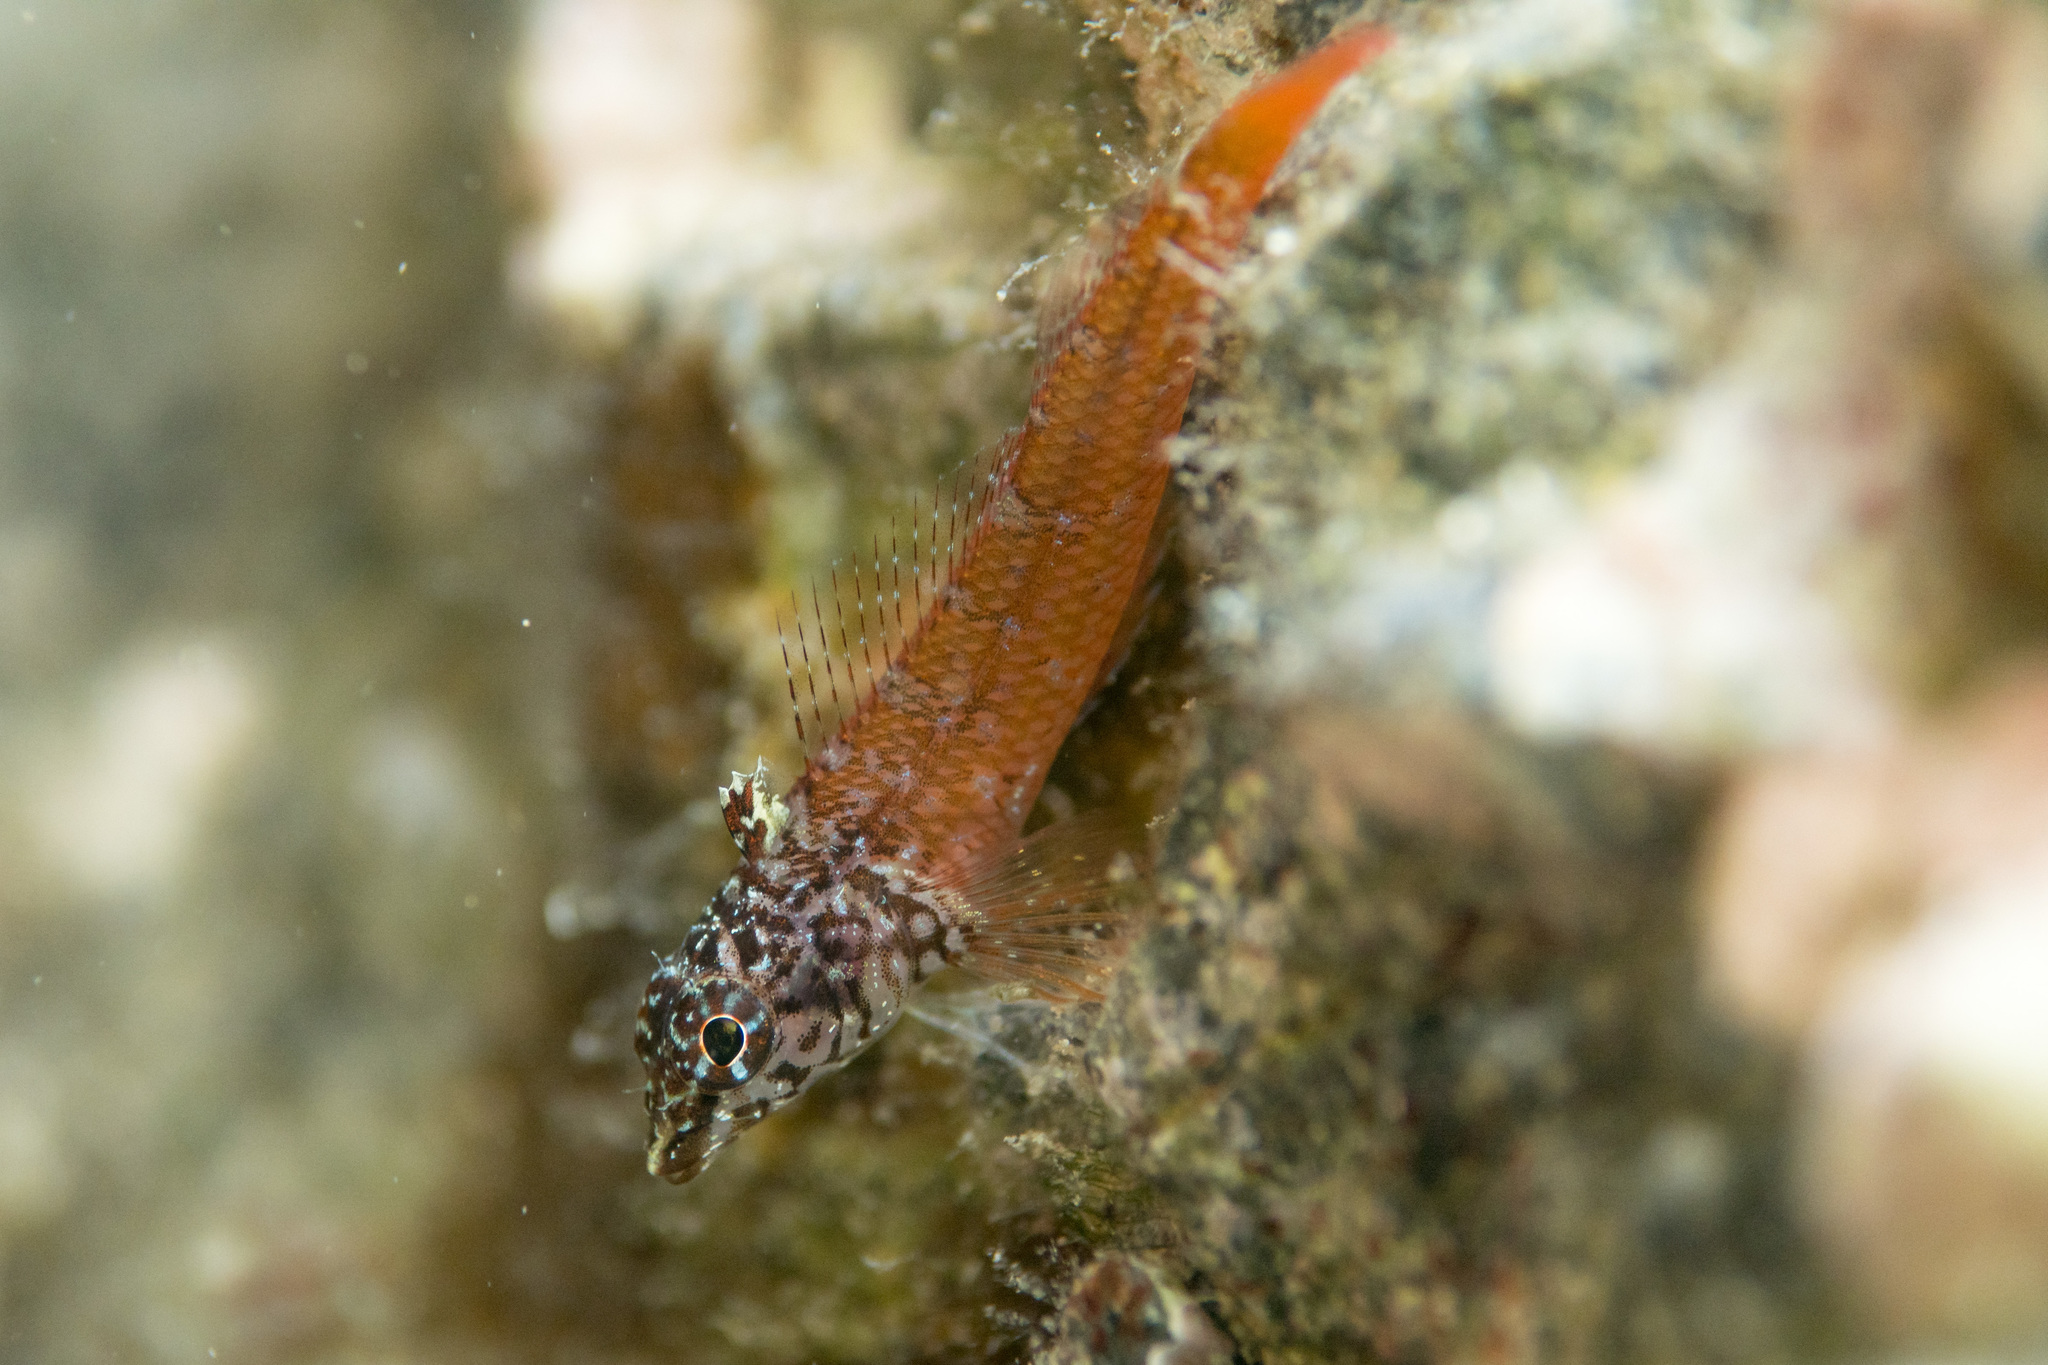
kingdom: Animalia
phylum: Chordata
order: Perciformes
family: Tripterygiidae
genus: Tripterygion
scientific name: Tripterygion melanurum
